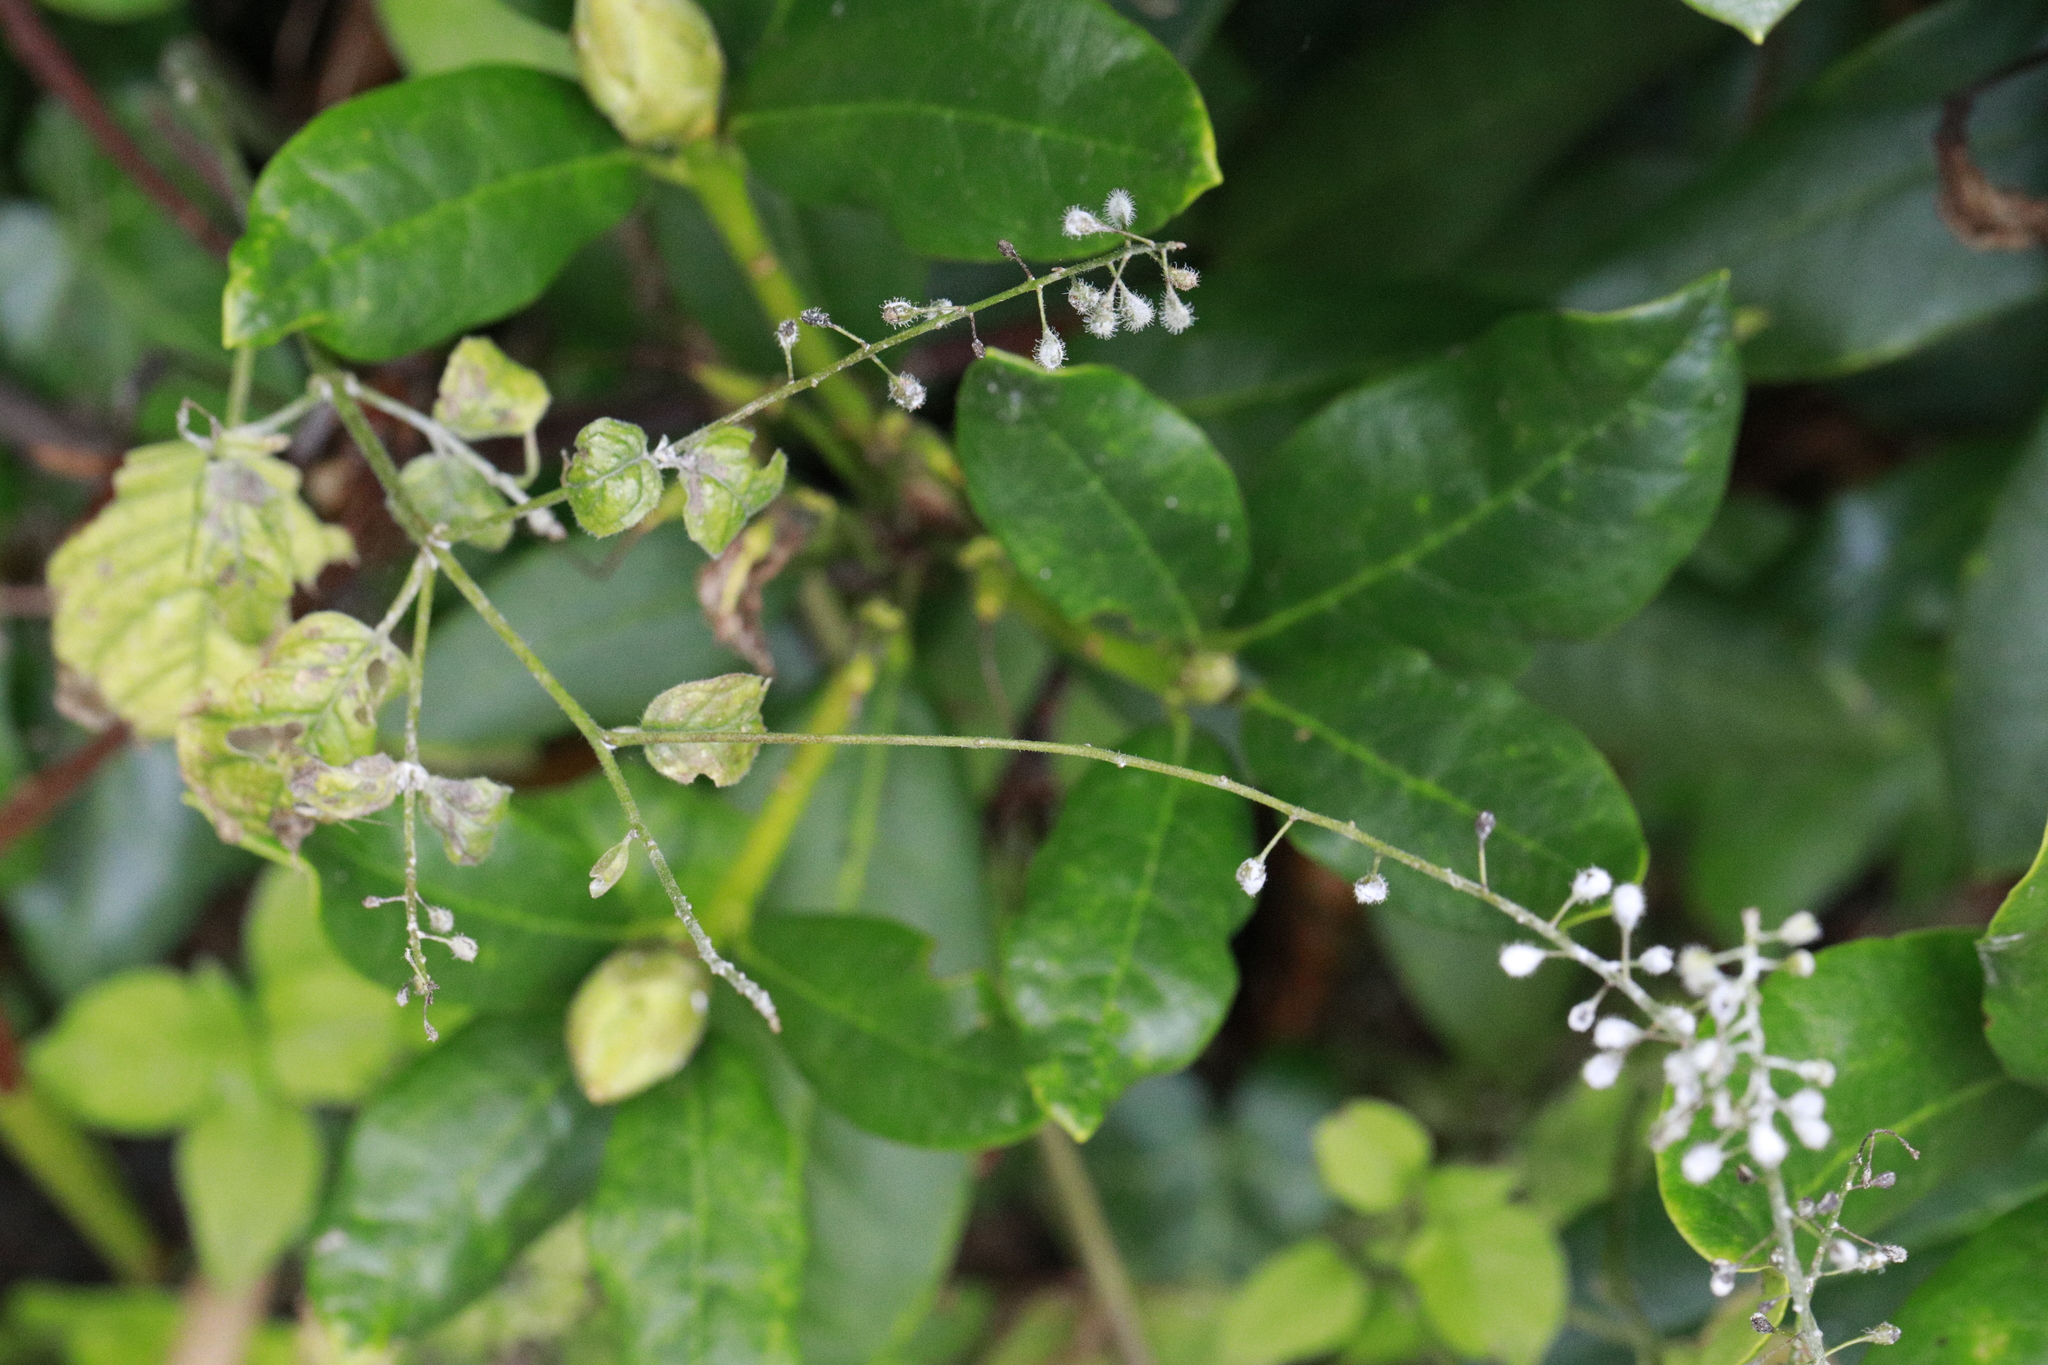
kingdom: Plantae
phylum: Tracheophyta
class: Magnoliopsida
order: Myrtales
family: Onagraceae
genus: Circaea
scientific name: Circaea lutetiana
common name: Enchanter's-nightshade
